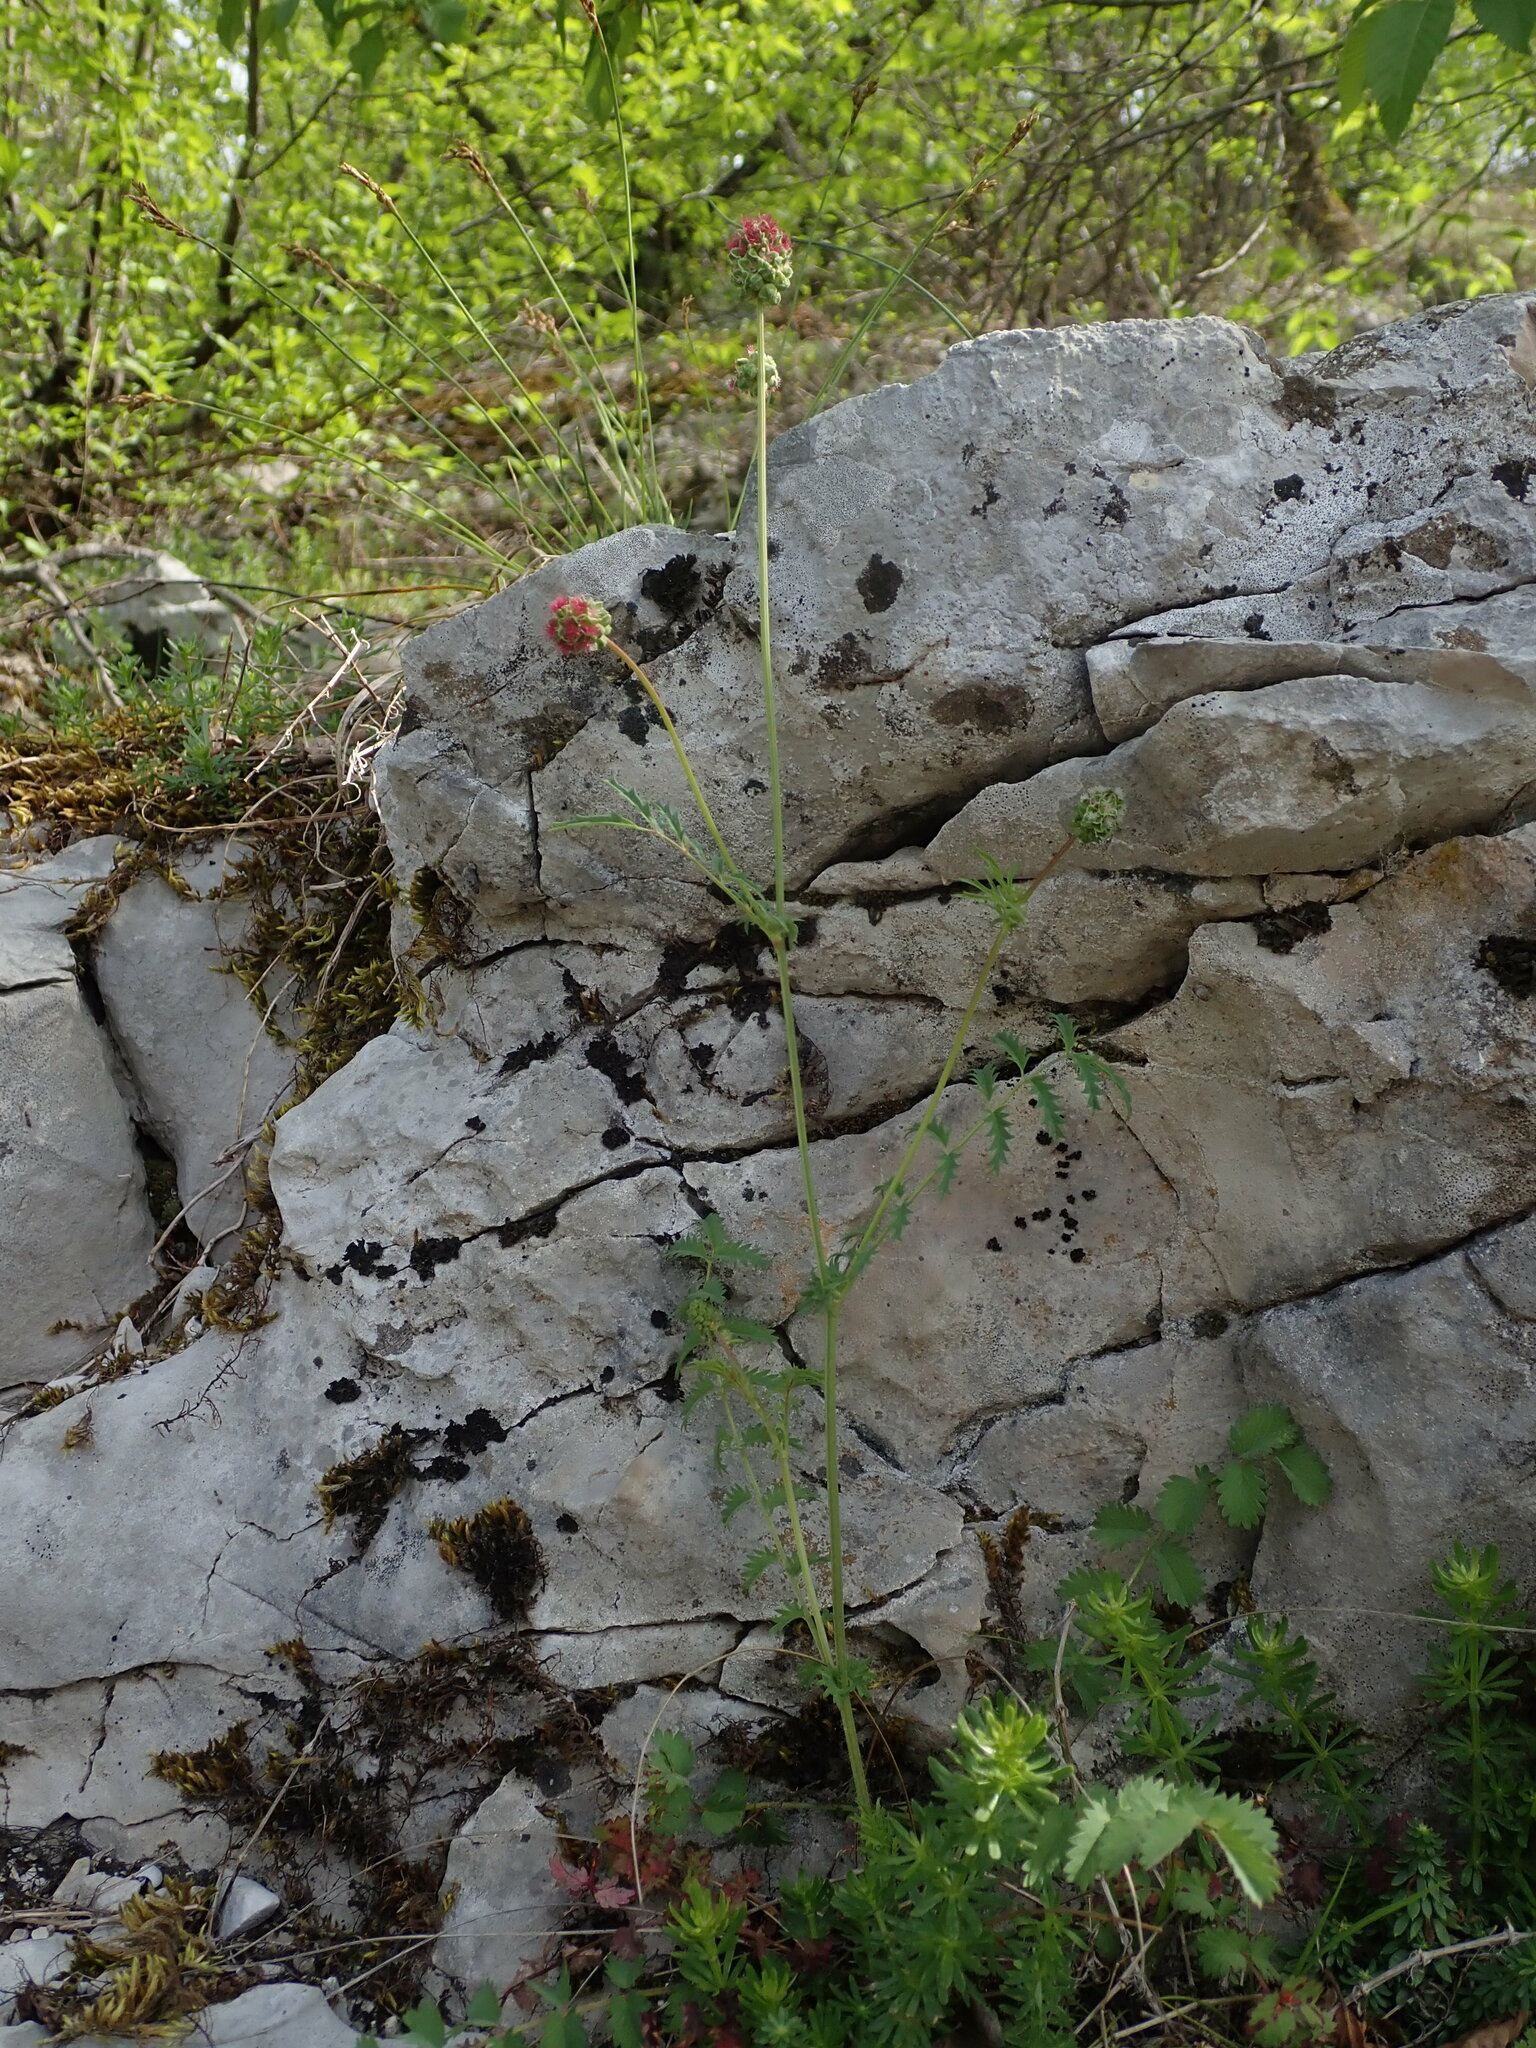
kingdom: Plantae
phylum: Tracheophyta
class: Magnoliopsida
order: Rosales
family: Rosaceae
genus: Poterium
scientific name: Poterium sanguisorba
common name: Salad burnet
